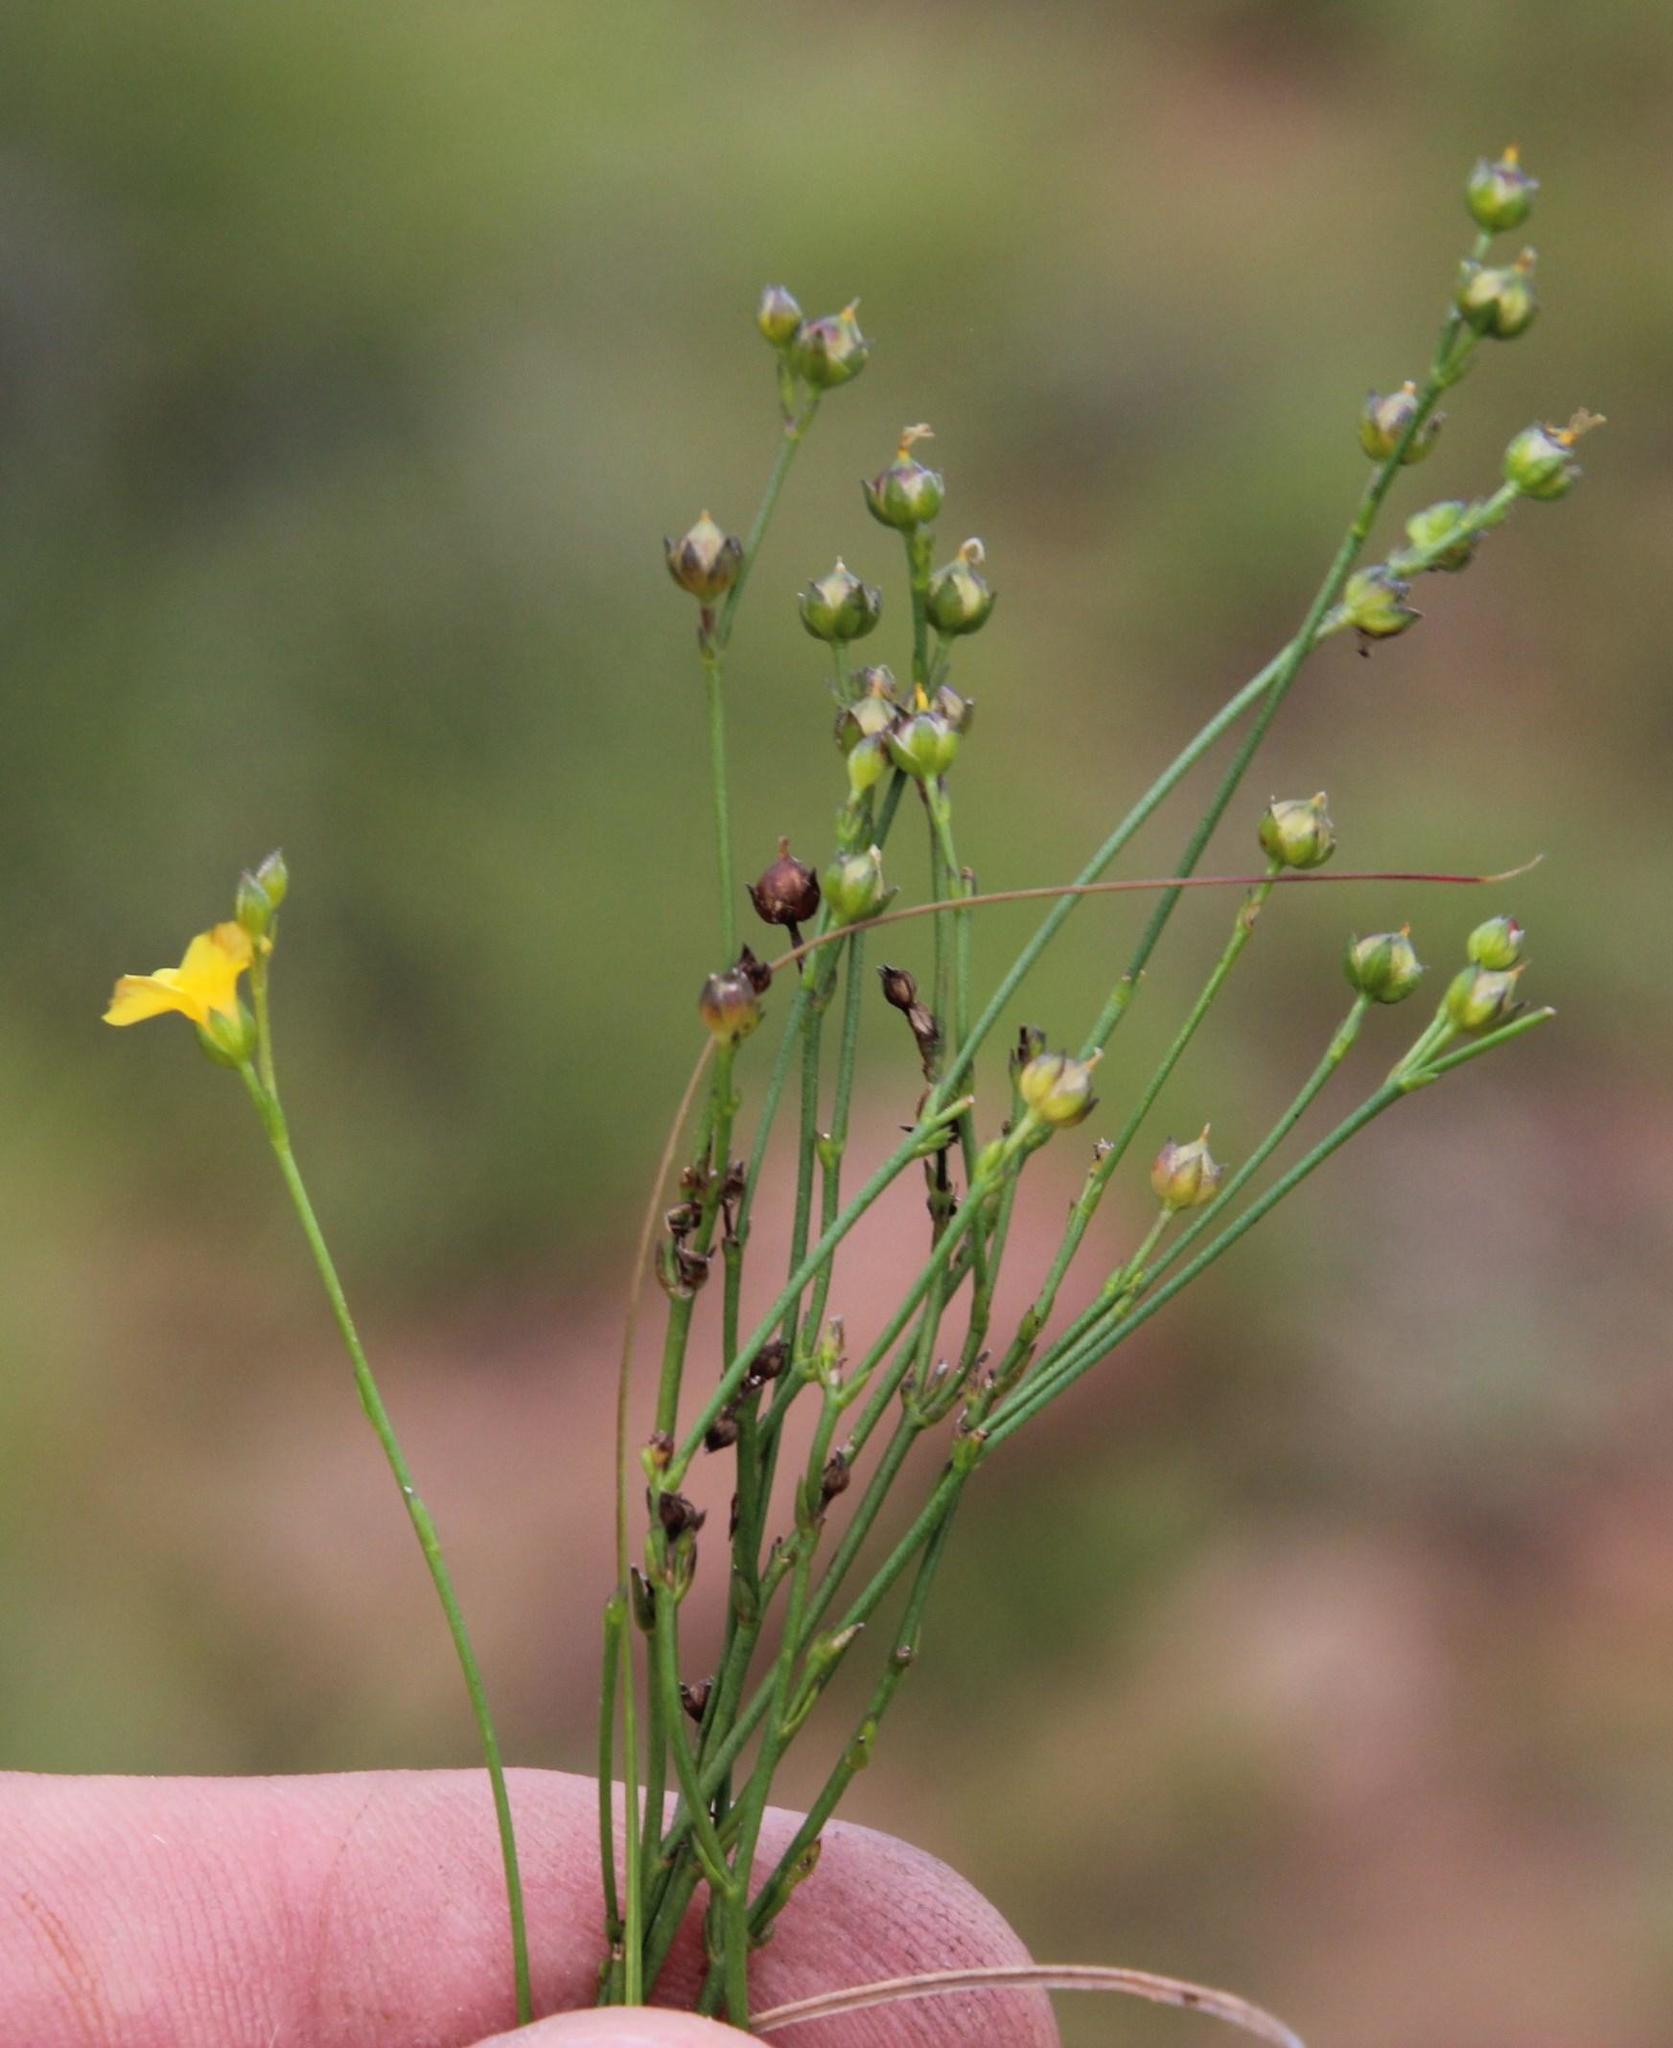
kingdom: Plantae
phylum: Tracheophyta
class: Magnoliopsida
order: Malpighiales
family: Linaceae
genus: Linum
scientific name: Linum thunbergii
